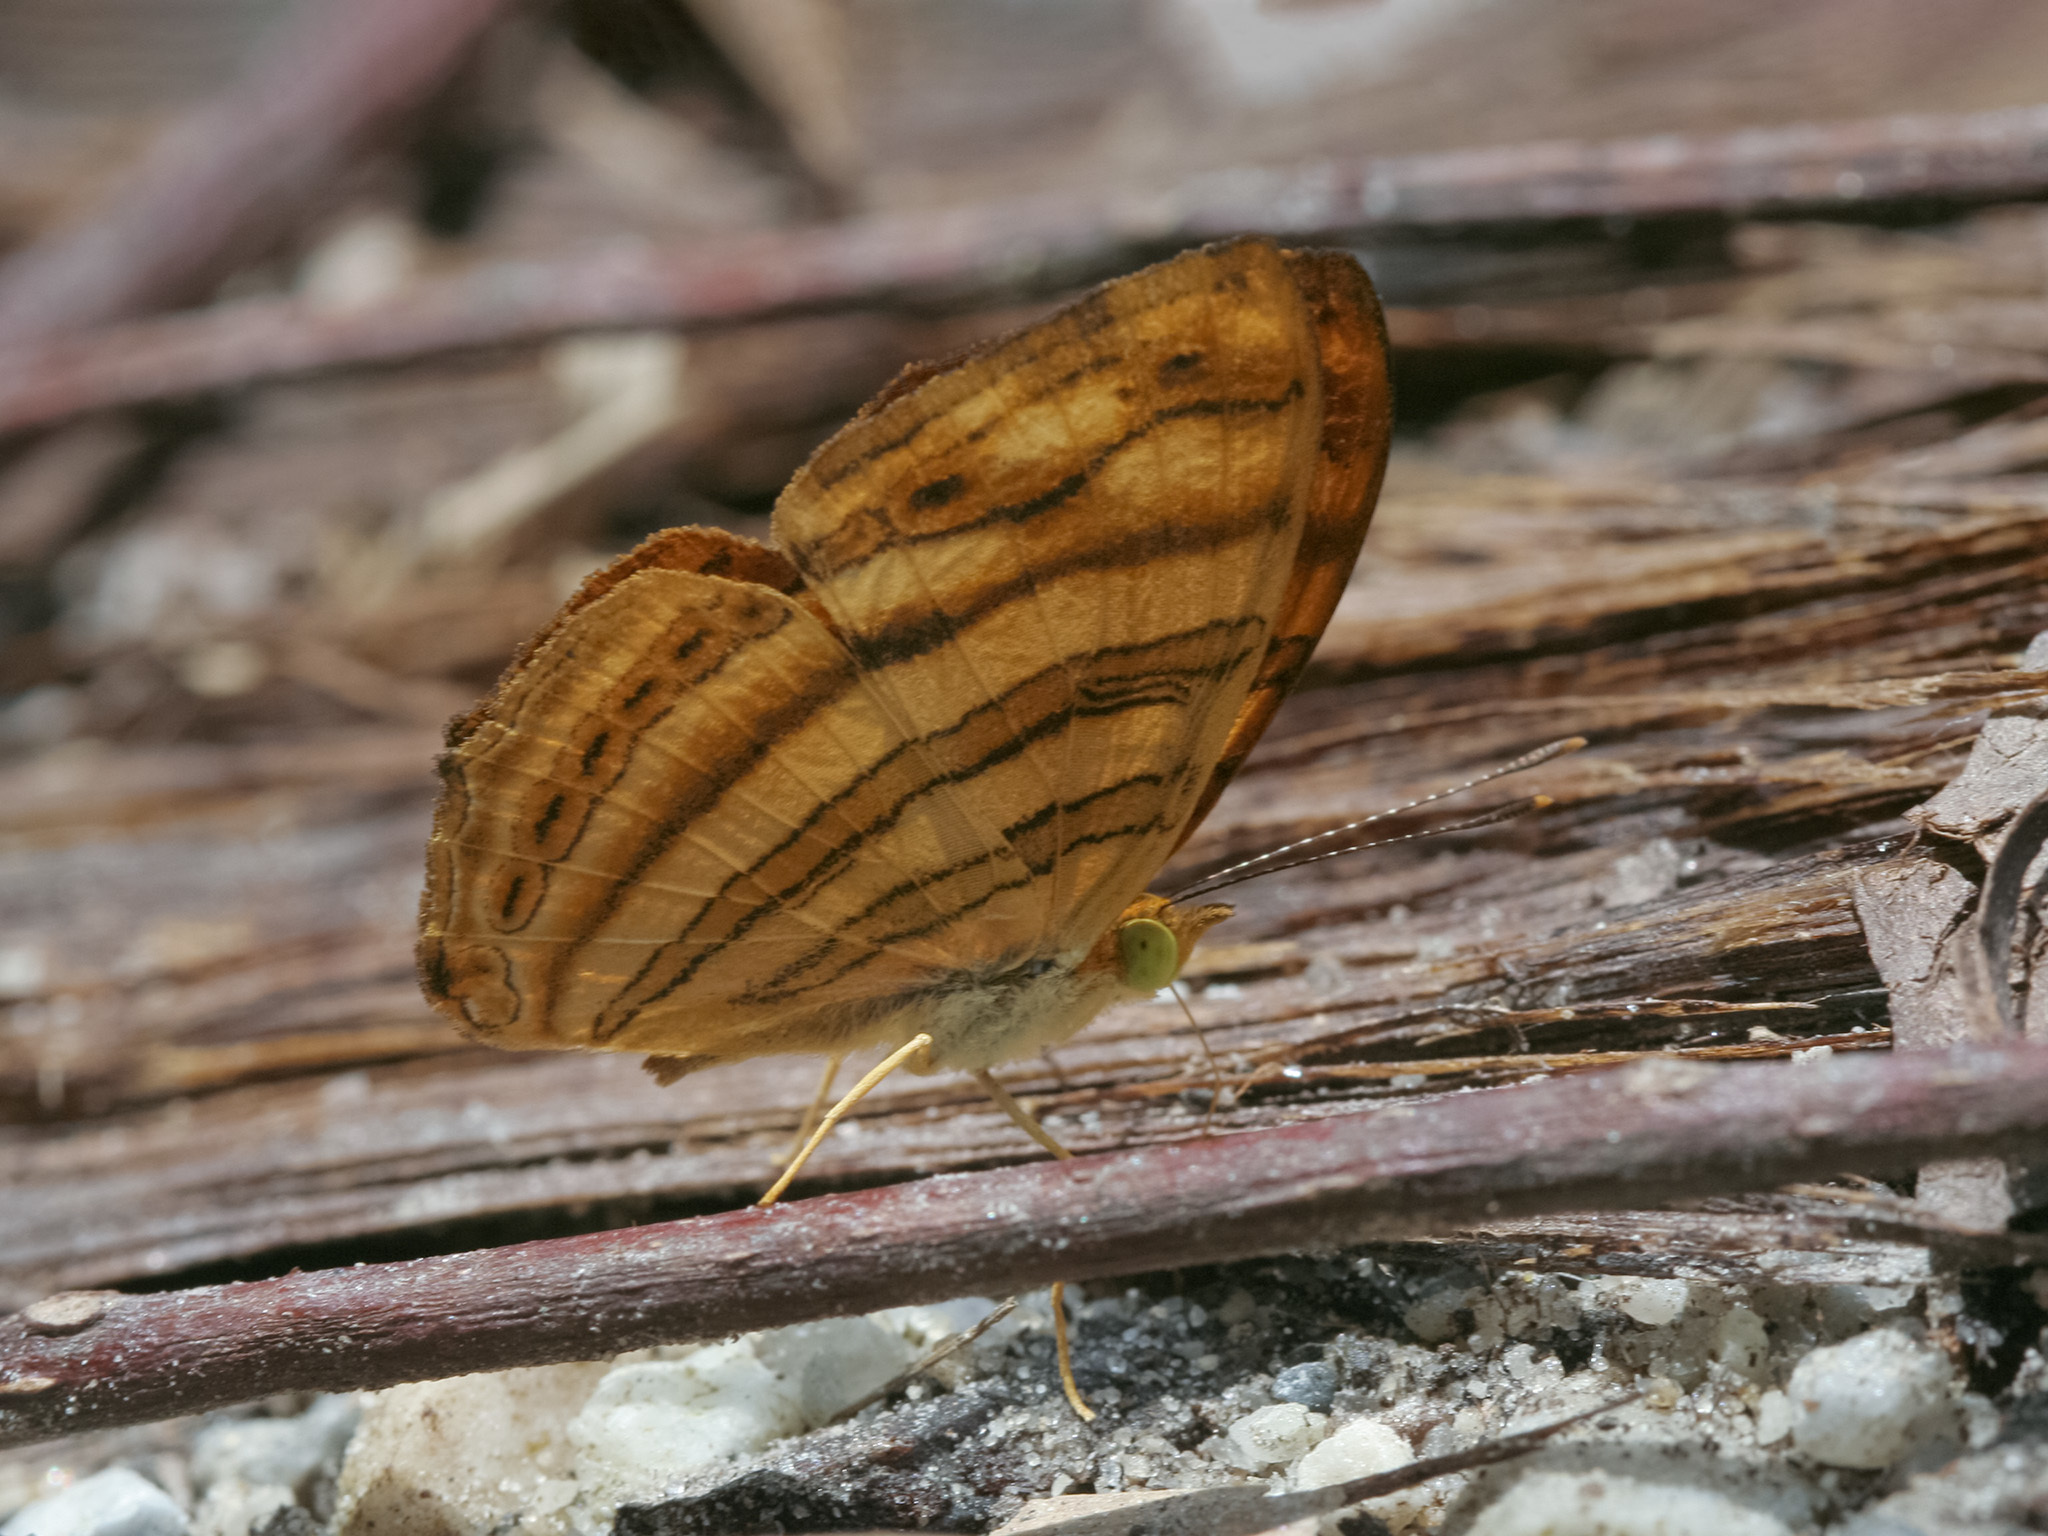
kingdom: Animalia
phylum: Arthropoda
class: Insecta
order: Lepidoptera
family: Nymphalidae
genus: Chersonesia
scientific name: Chersonesia intermedia
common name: Intermediate maplet
